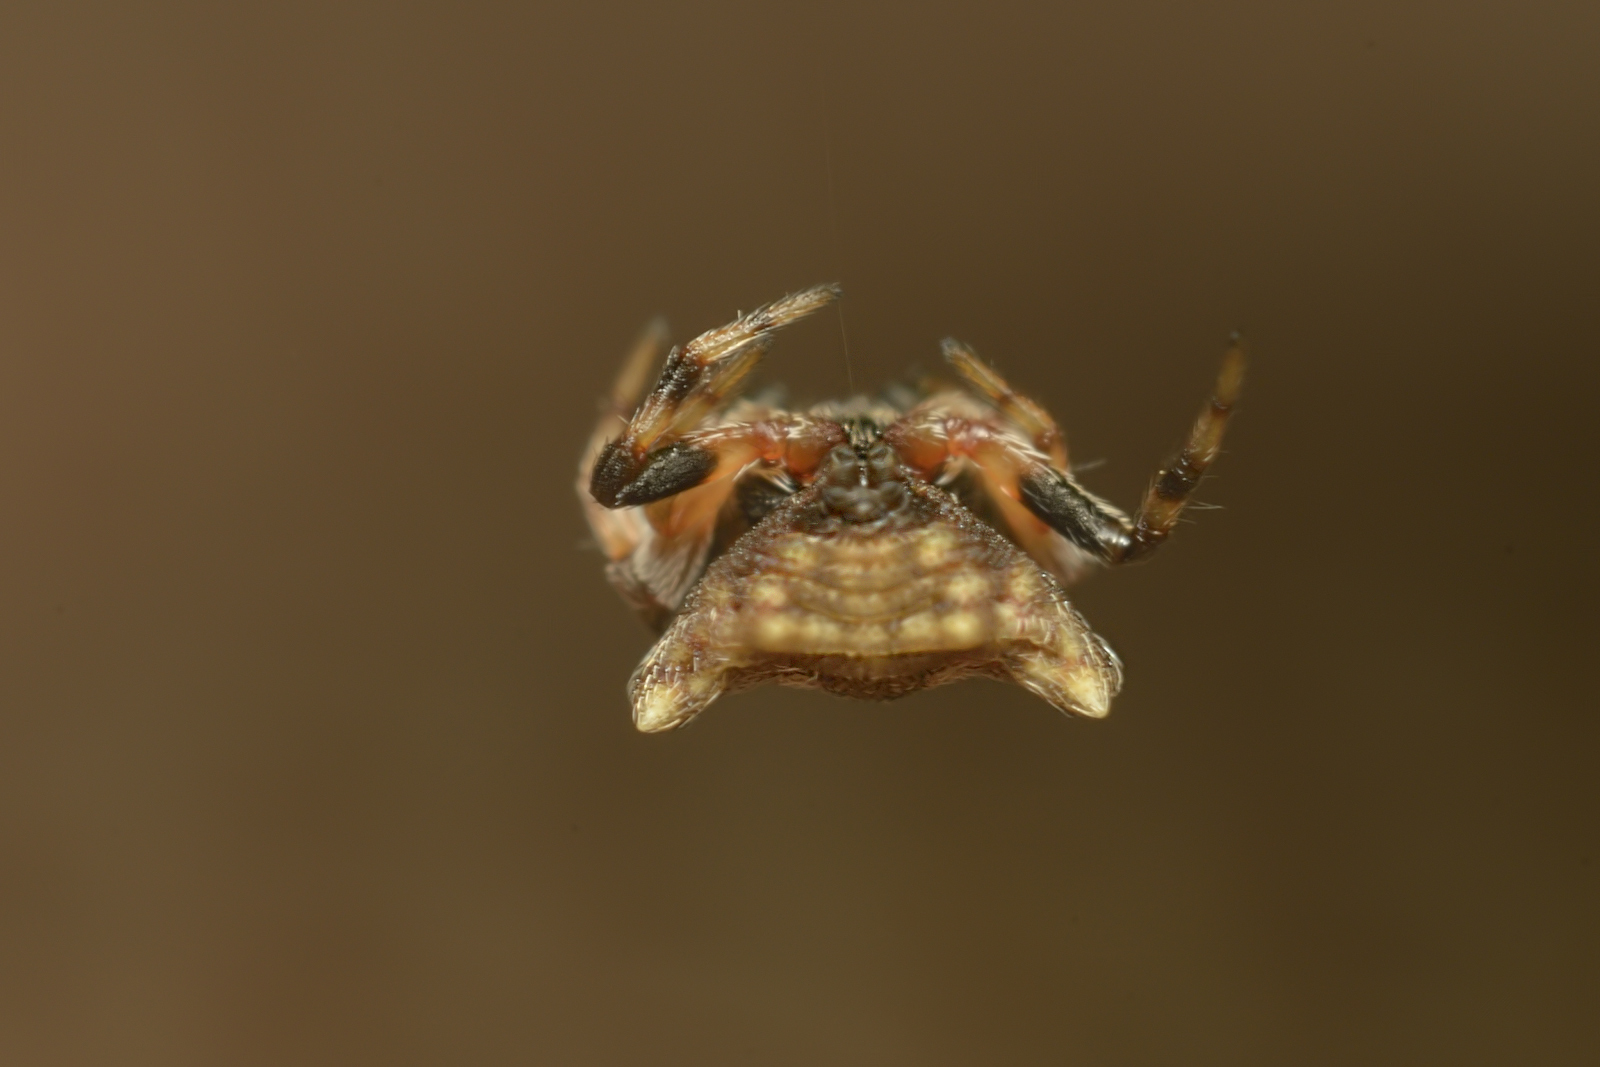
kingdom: Animalia
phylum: Arthropoda
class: Arachnida
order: Araneae
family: Araneidae
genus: Thelacantha
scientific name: Thelacantha brevispina
